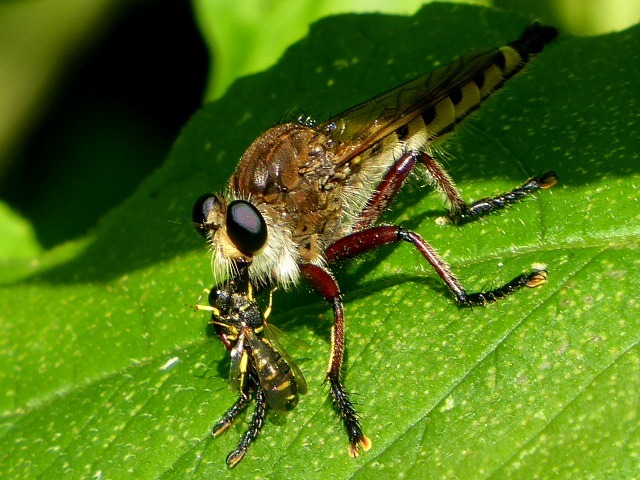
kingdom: Animalia
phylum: Arthropoda
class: Insecta
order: Diptera
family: Asilidae
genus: Promachus
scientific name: Promachus hinei
